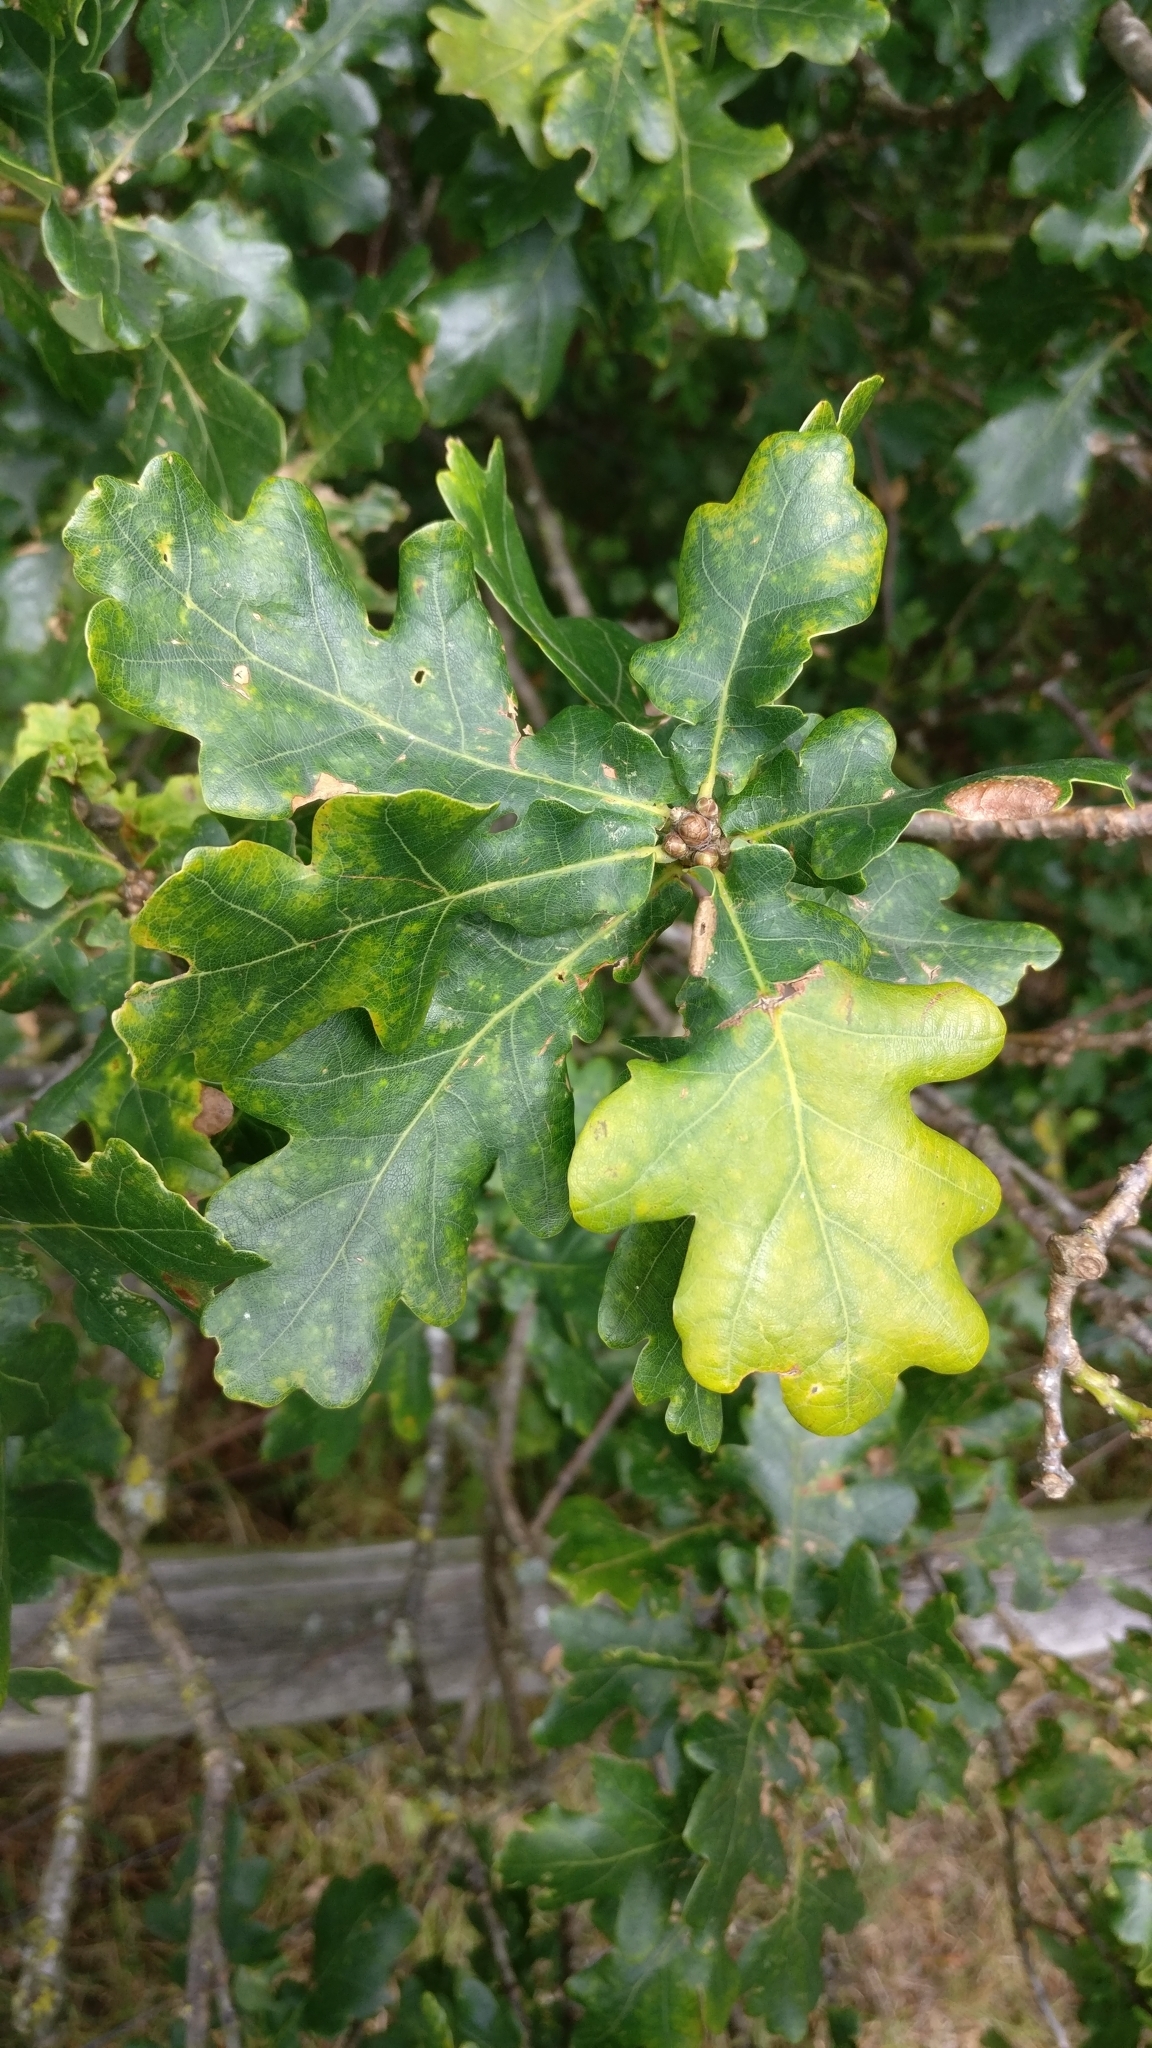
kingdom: Plantae
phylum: Tracheophyta
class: Magnoliopsida
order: Fagales
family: Fagaceae
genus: Quercus
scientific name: Quercus robur
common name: Pedunculate oak
